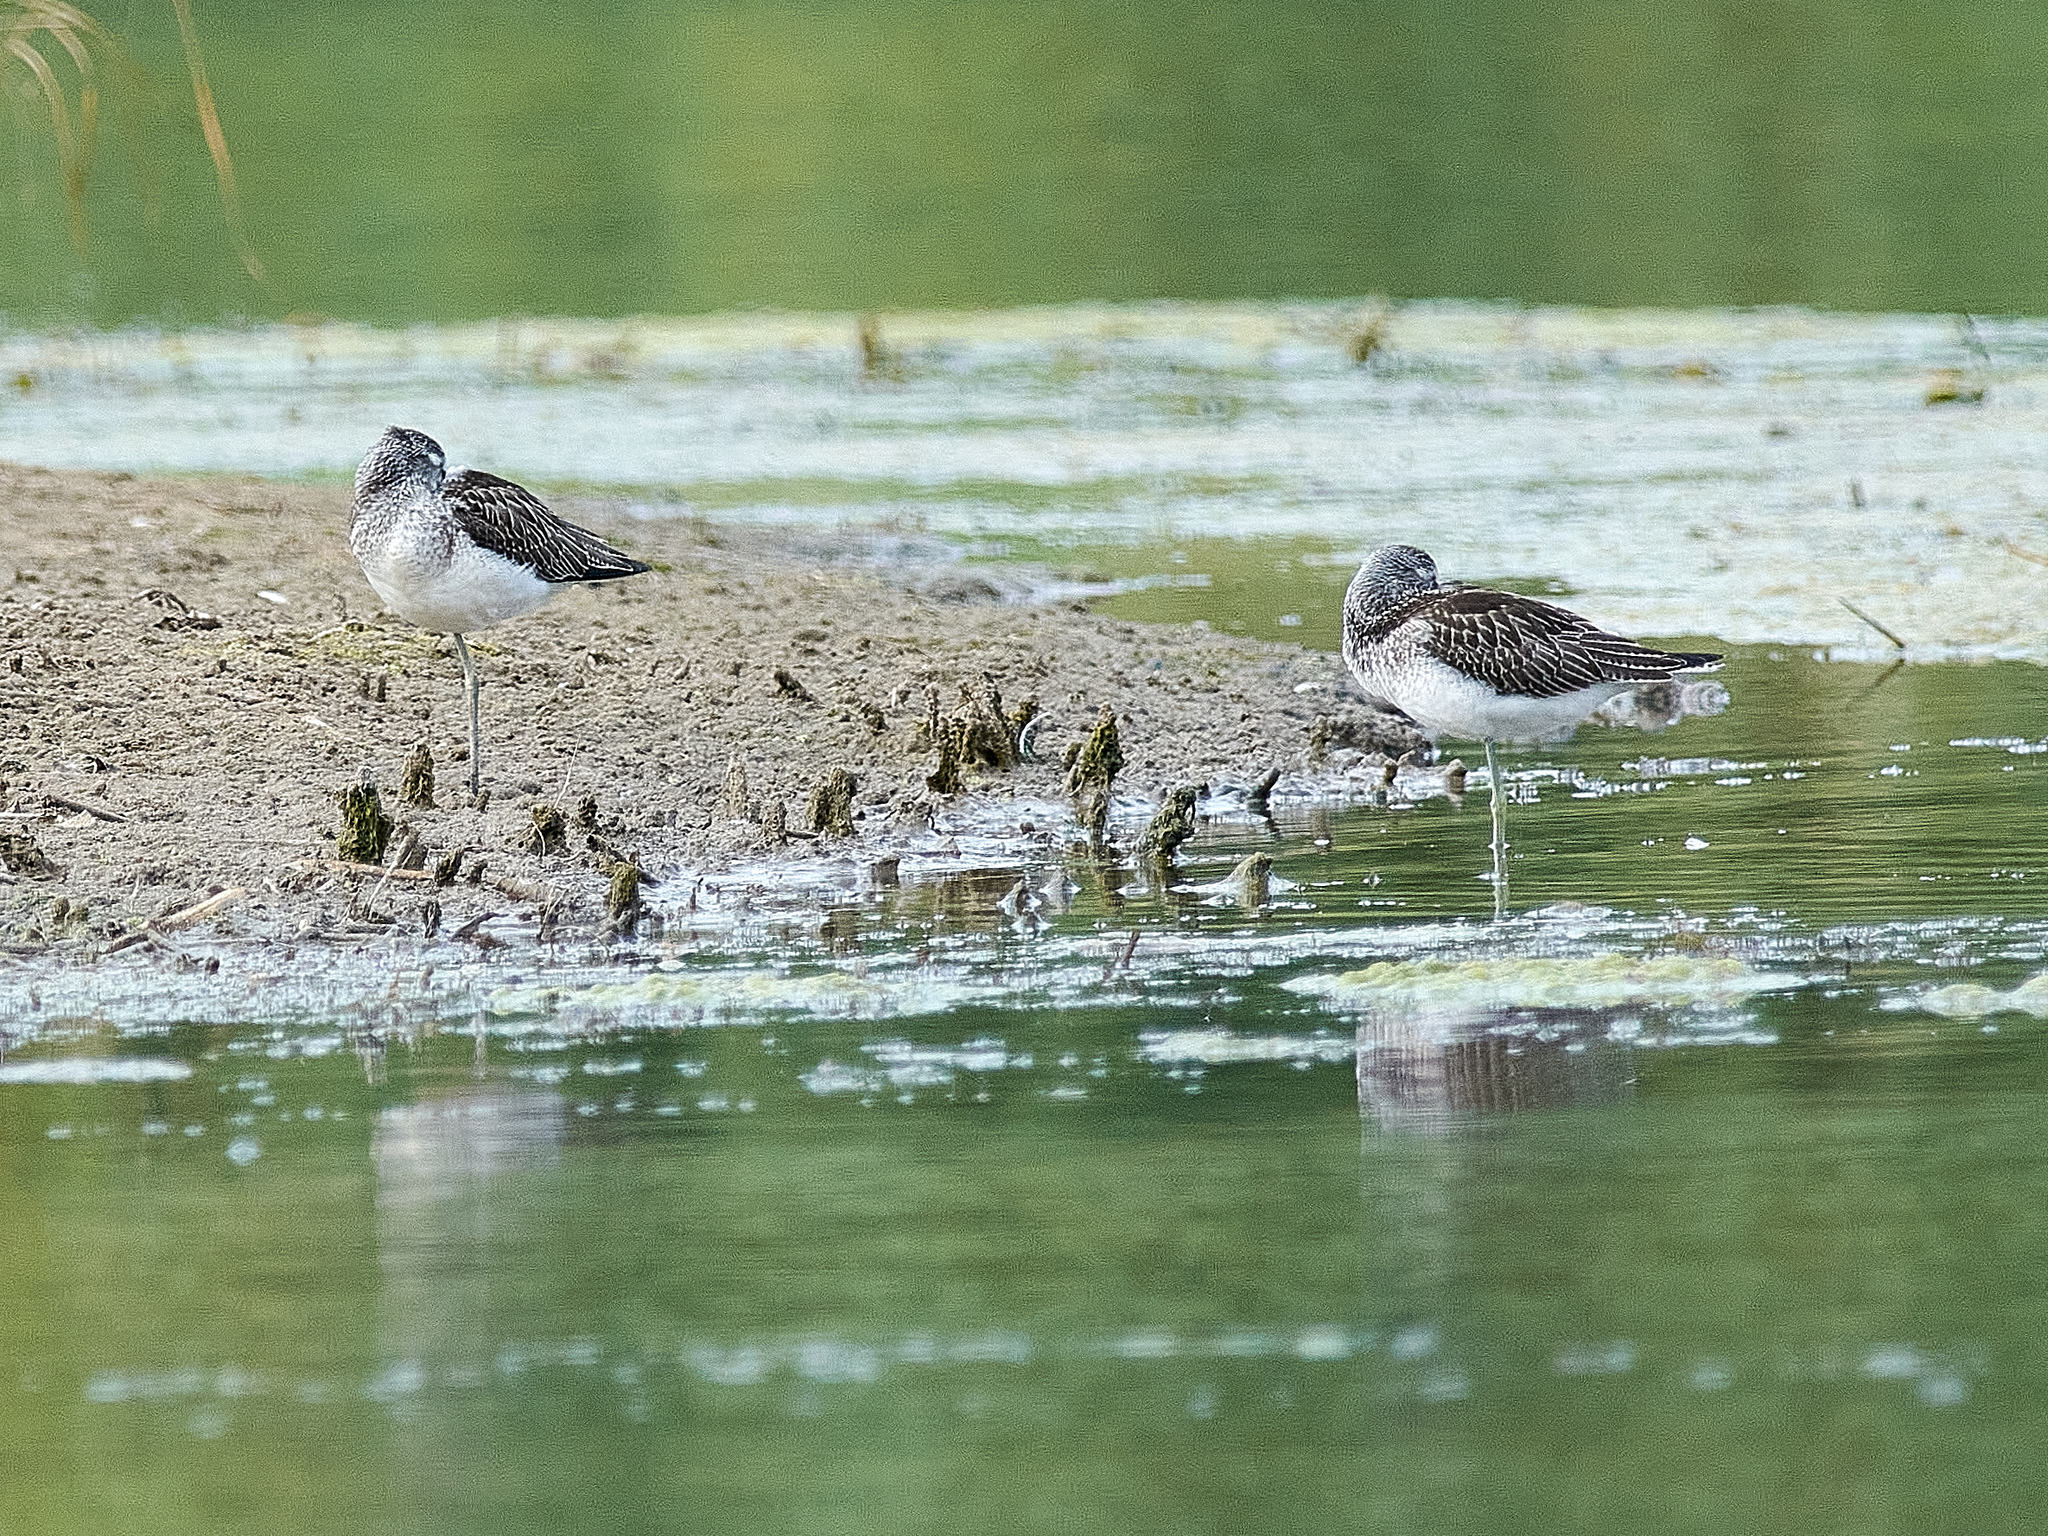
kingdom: Animalia
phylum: Chordata
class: Aves
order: Charadriiformes
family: Scolopacidae
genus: Tringa
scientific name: Tringa nebularia
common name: Common greenshank
